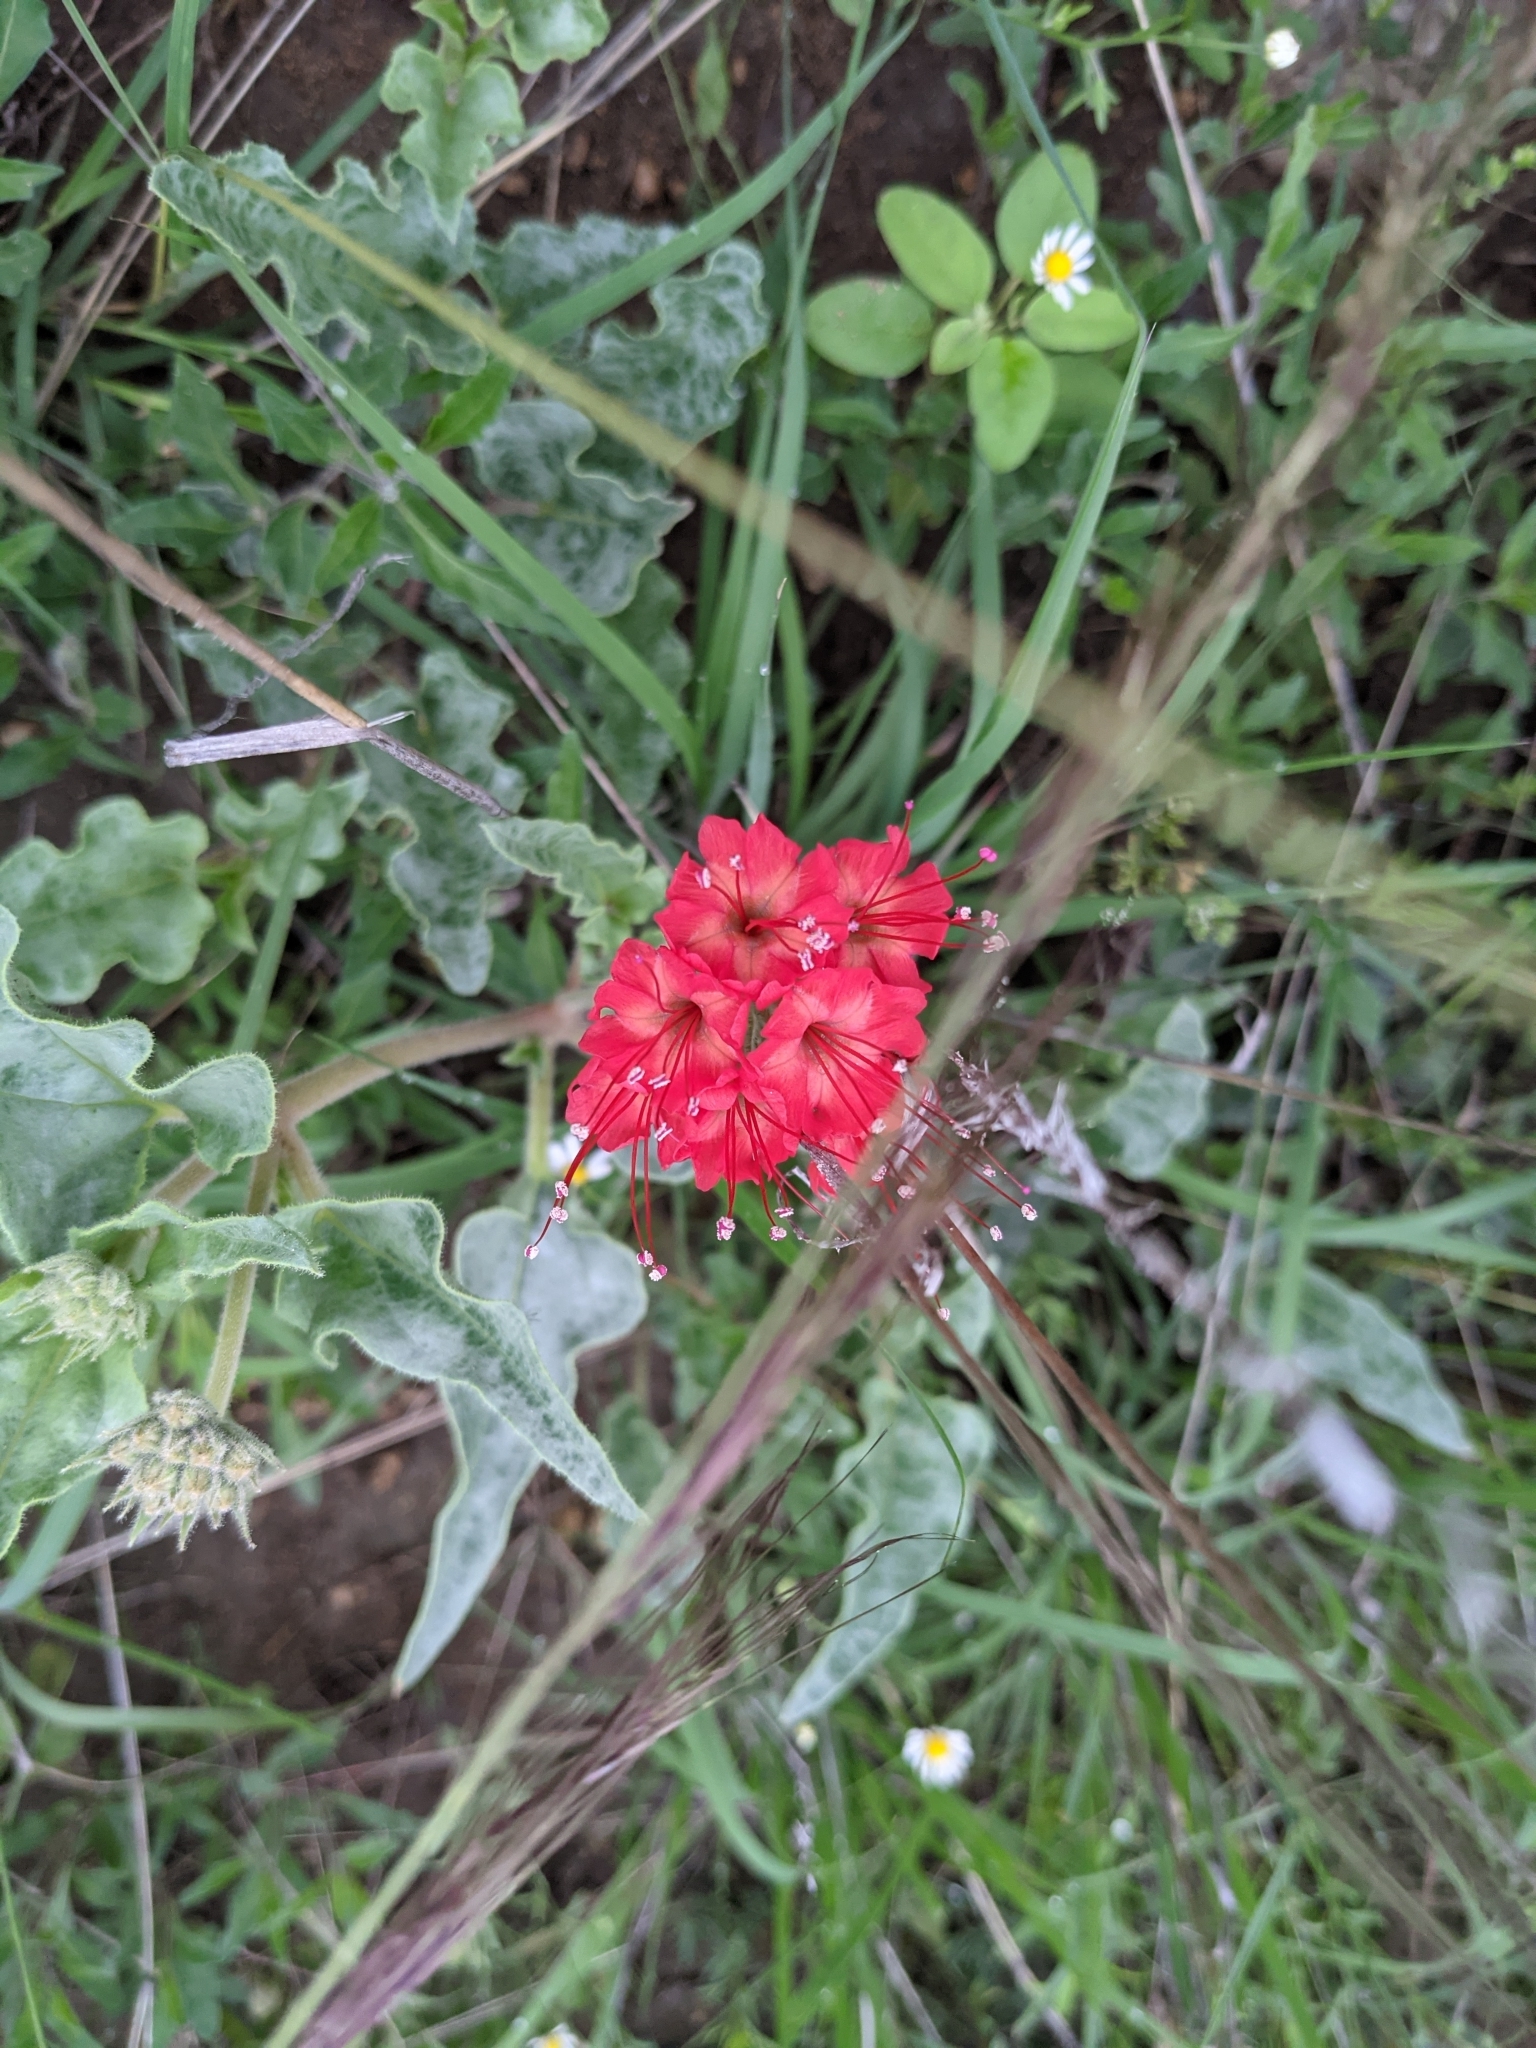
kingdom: Plantae
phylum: Tracheophyta
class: Magnoliopsida
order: Caryophyllales
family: Nyctaginaceae
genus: Nyctaginia
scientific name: Nyctaginia capitata
